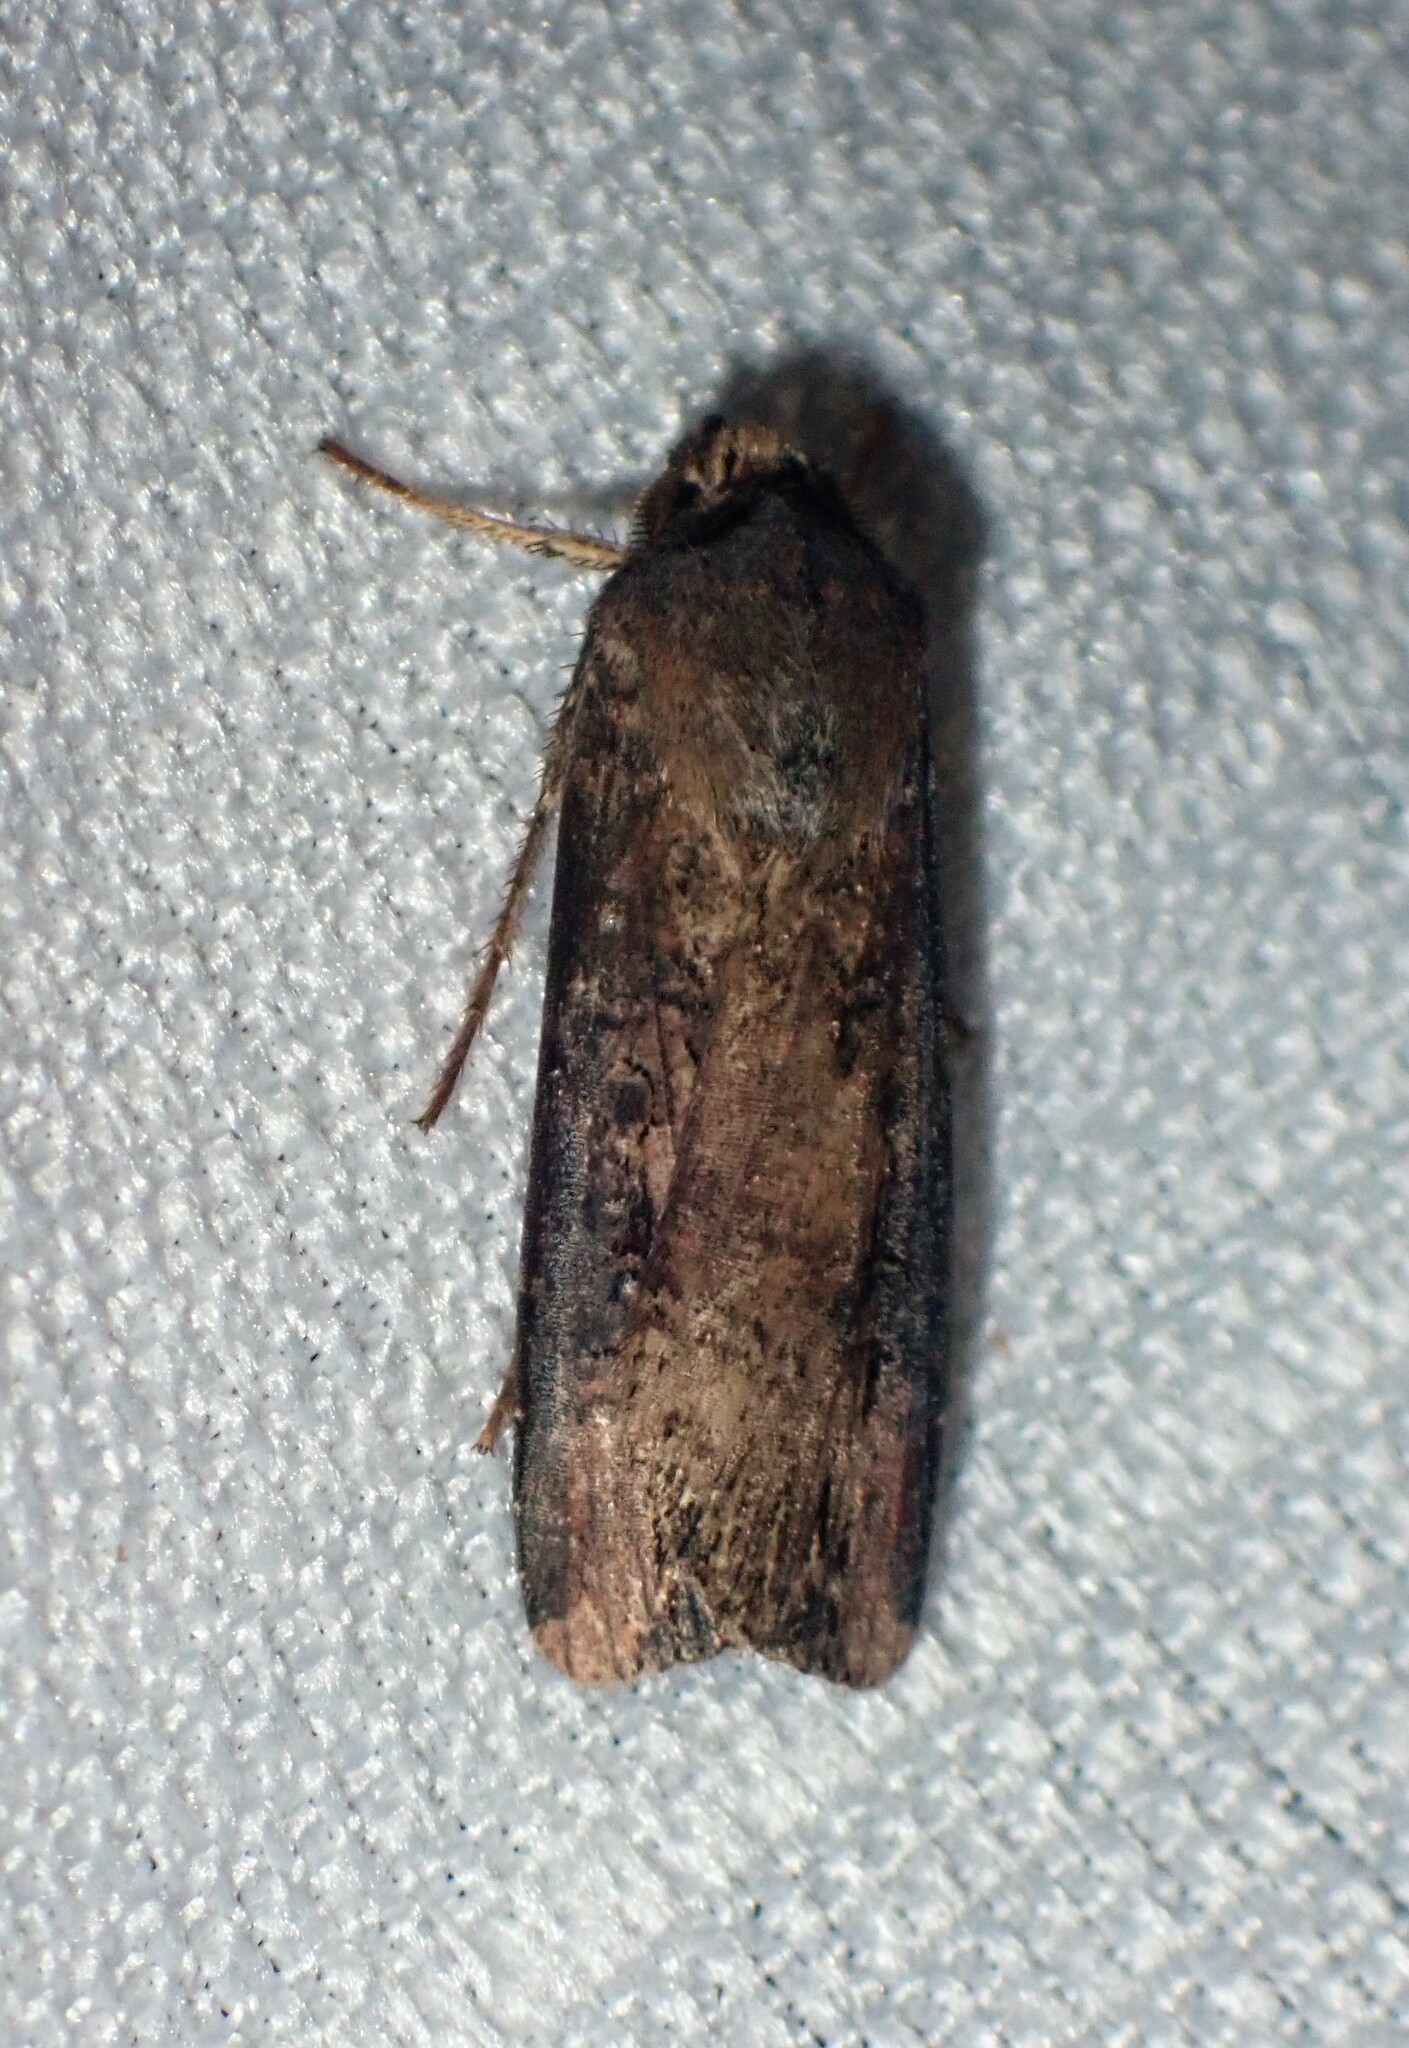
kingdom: Animalia
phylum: Arthropoda
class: Insecta
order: Lepidoptera
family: Noctuidae
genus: Agrotis
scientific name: Agrotis ipsilon
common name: Dark sword-grass
